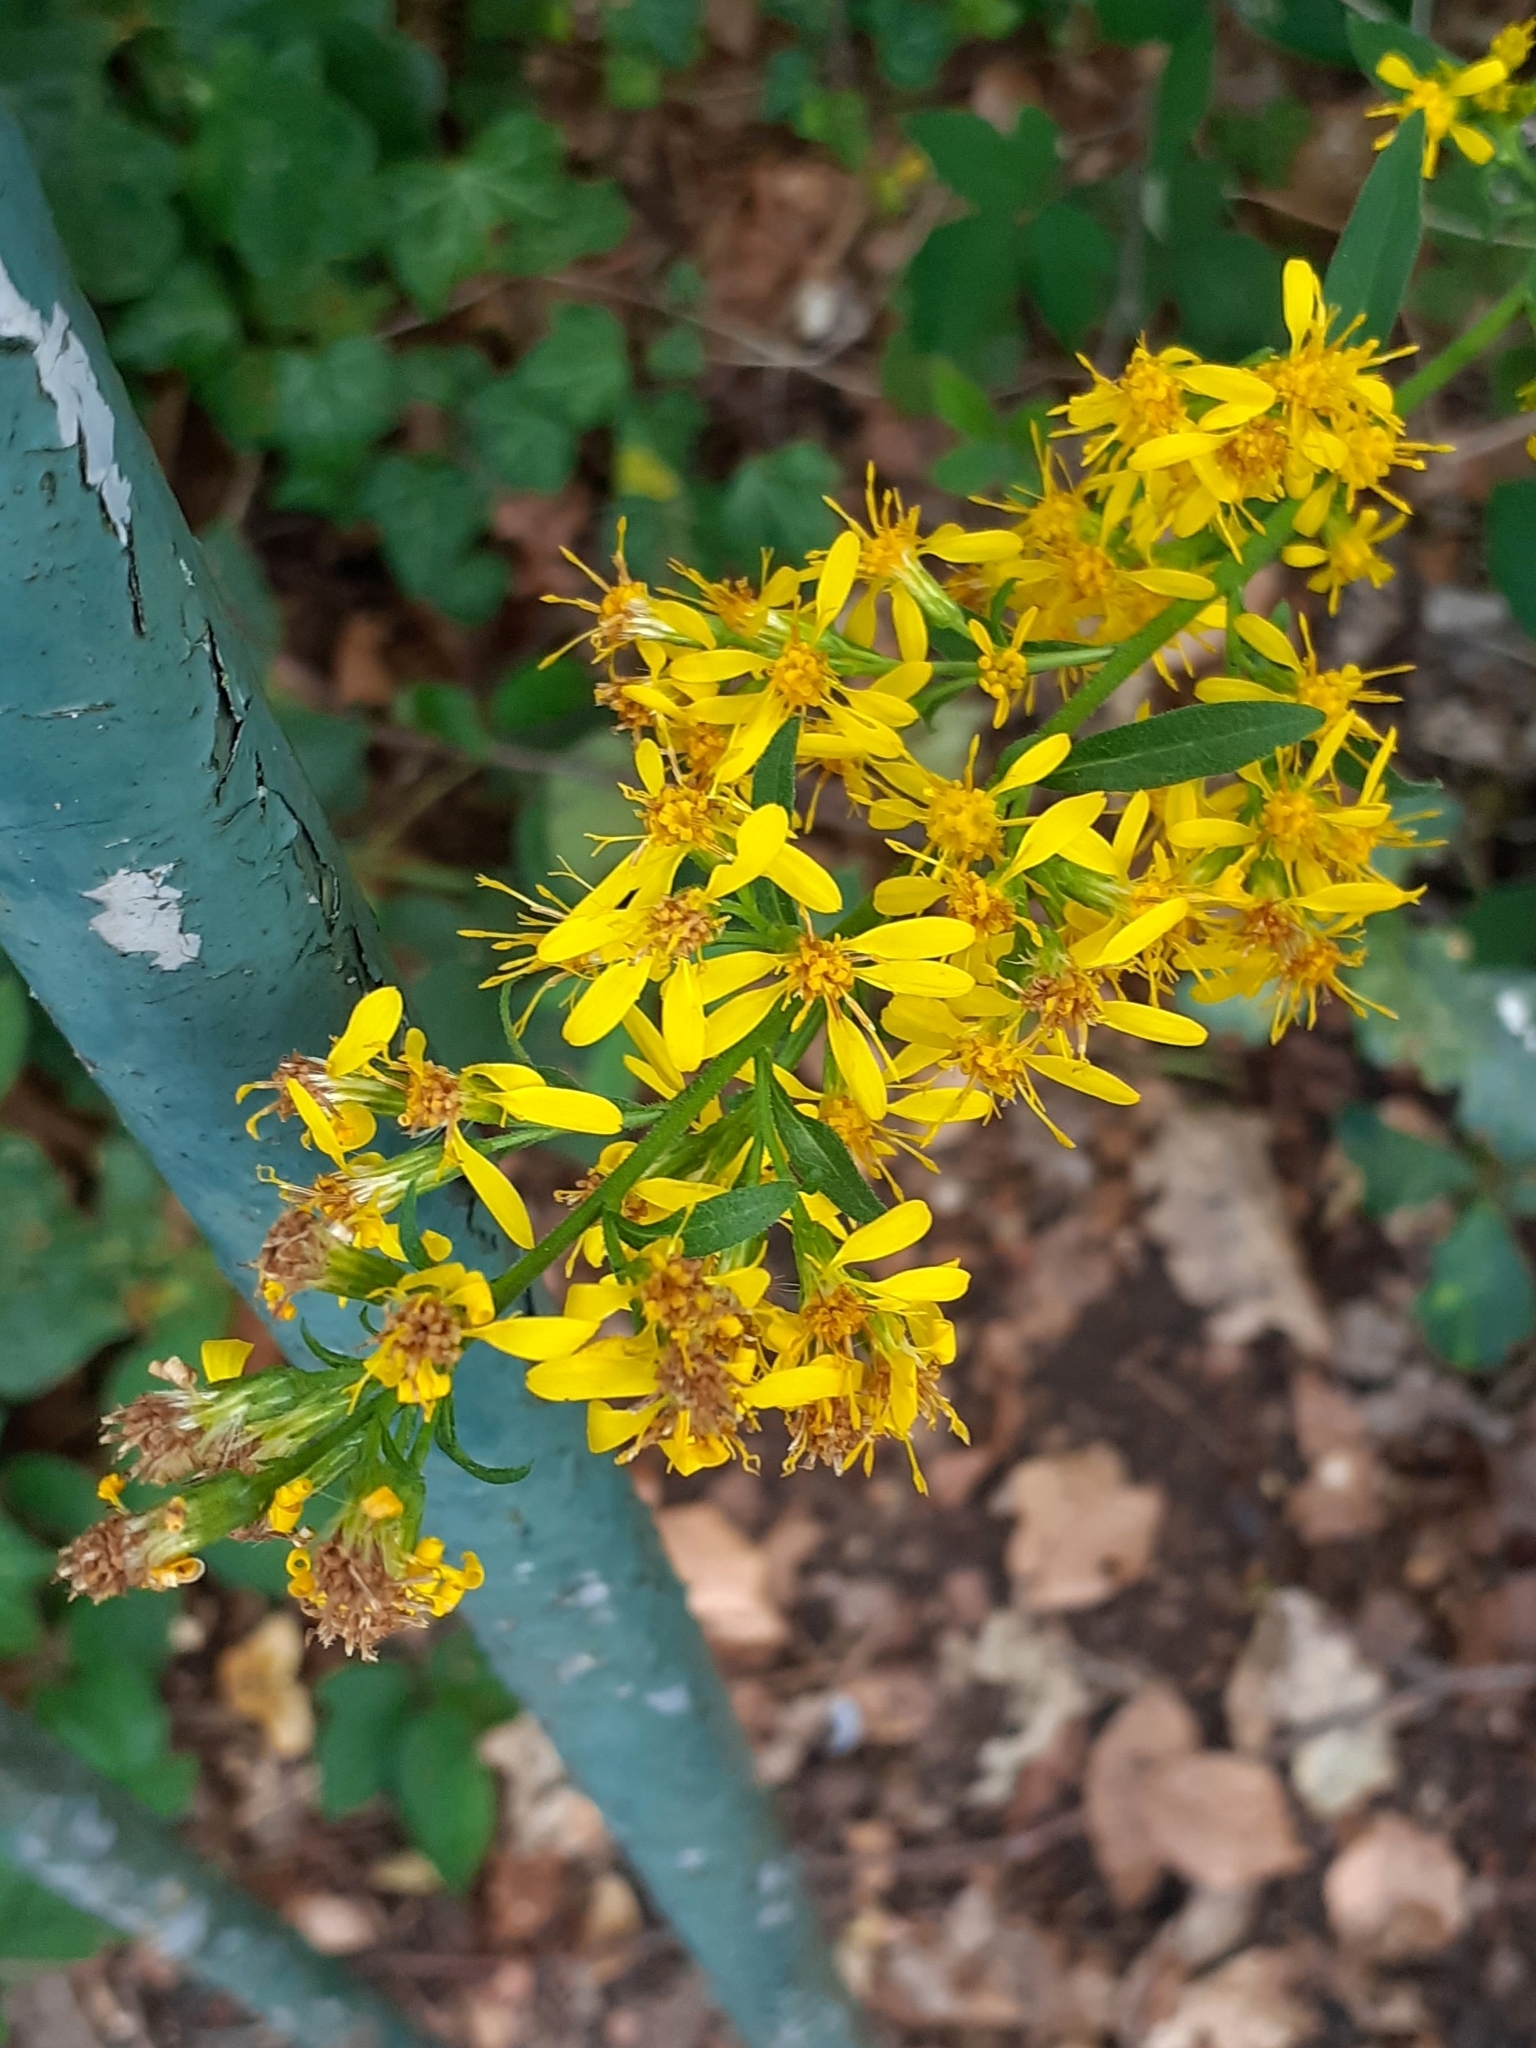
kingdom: Plantae
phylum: Tracheophyta
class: Magnoliopsida
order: Asterales
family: Asteraceae
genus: Solidago
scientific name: Solidago virgaurea
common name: Goldenrod
